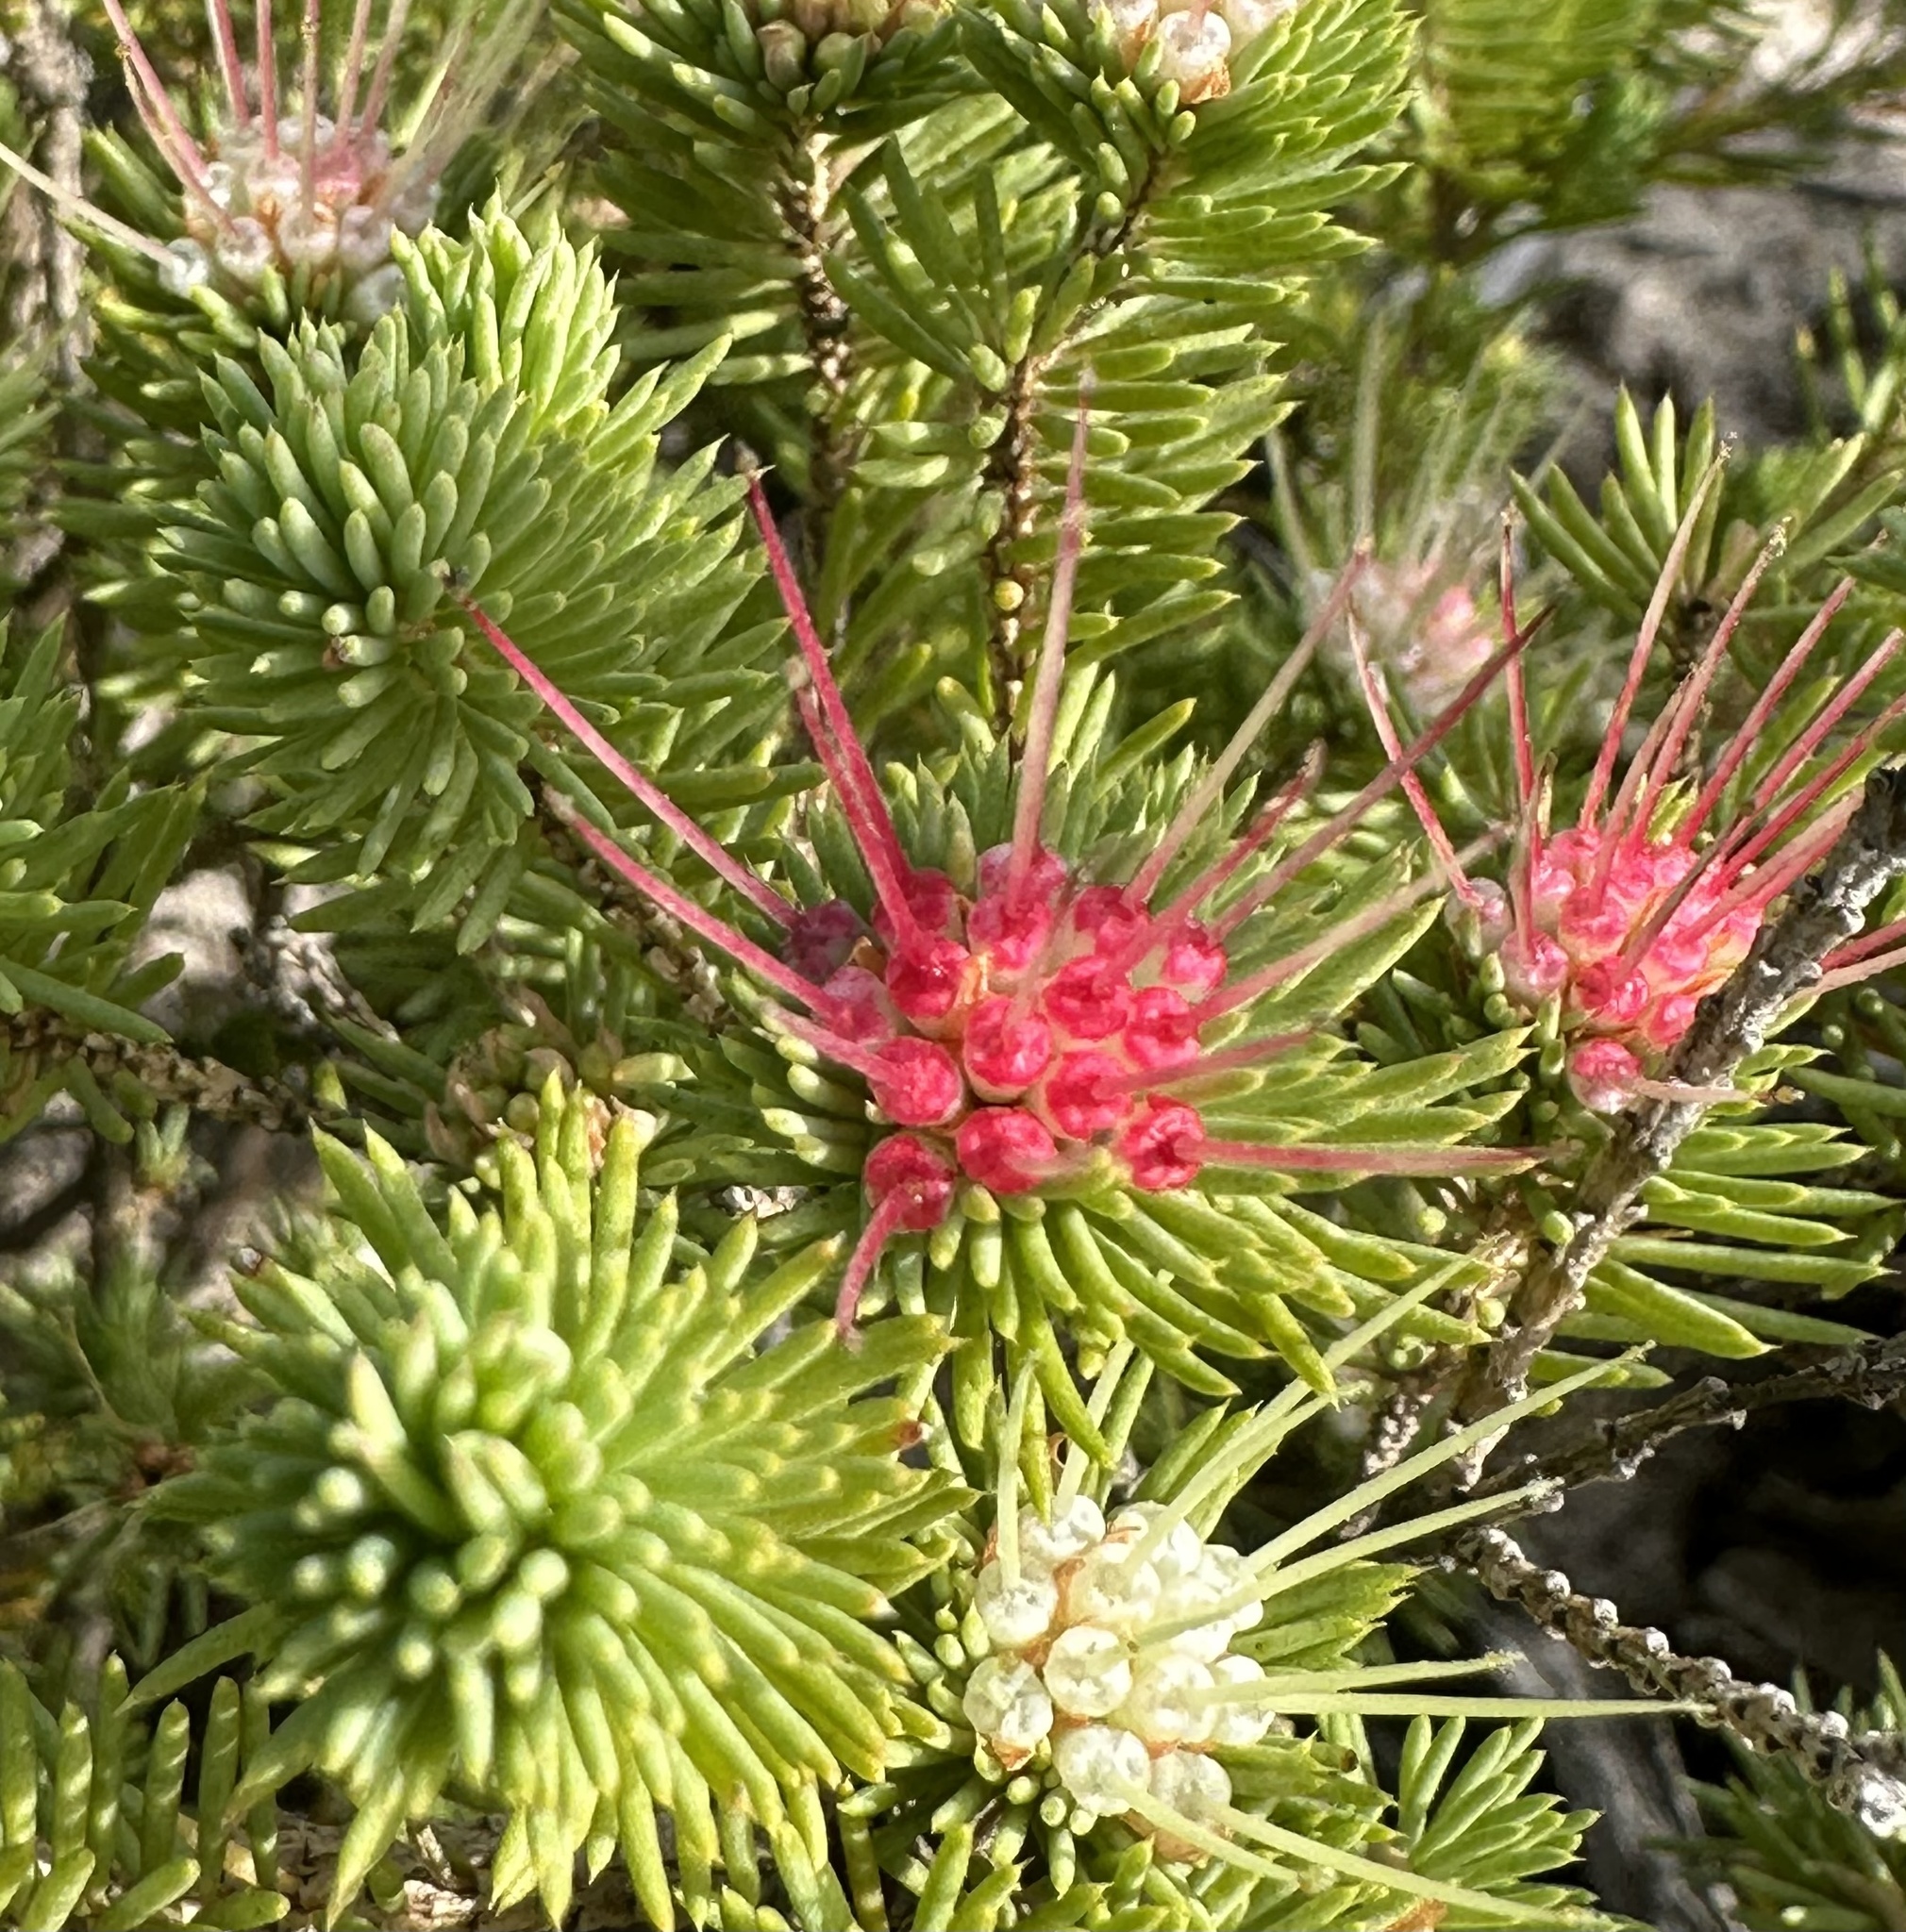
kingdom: Plantae
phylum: Tracheophyta
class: Magnoliopsida
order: Myrtales
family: Myrtaceae
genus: Darwinia
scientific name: Darwinia fascicularis
